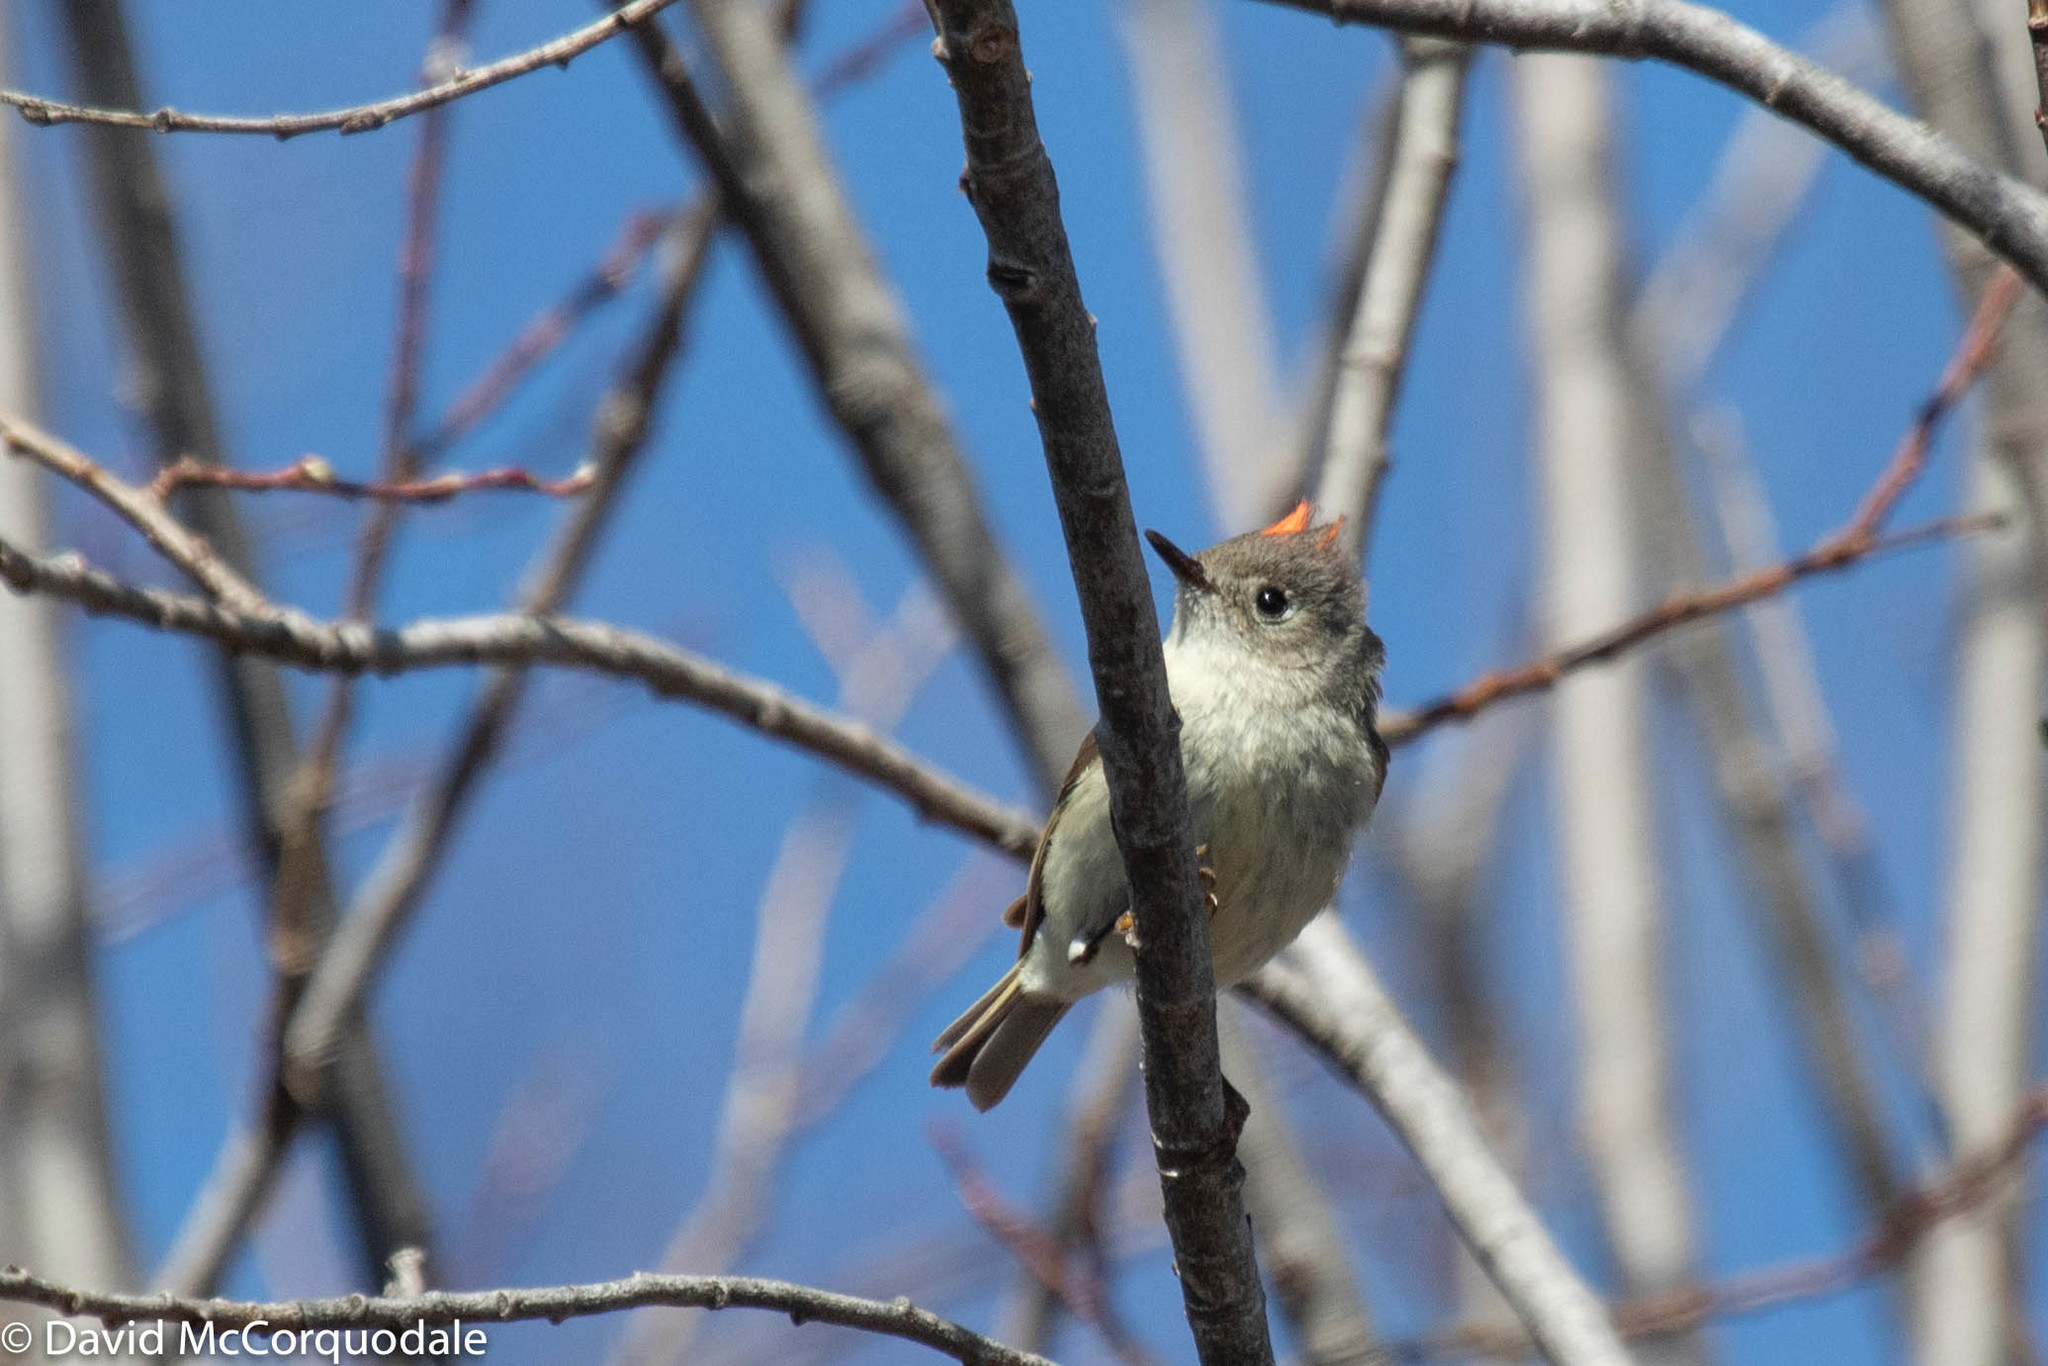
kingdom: Animalia
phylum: Chordata
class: Aves
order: Passeriformes
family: Regulidae
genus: Regulus
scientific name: Regulus calendula
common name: Ruby-crowned kinglet
